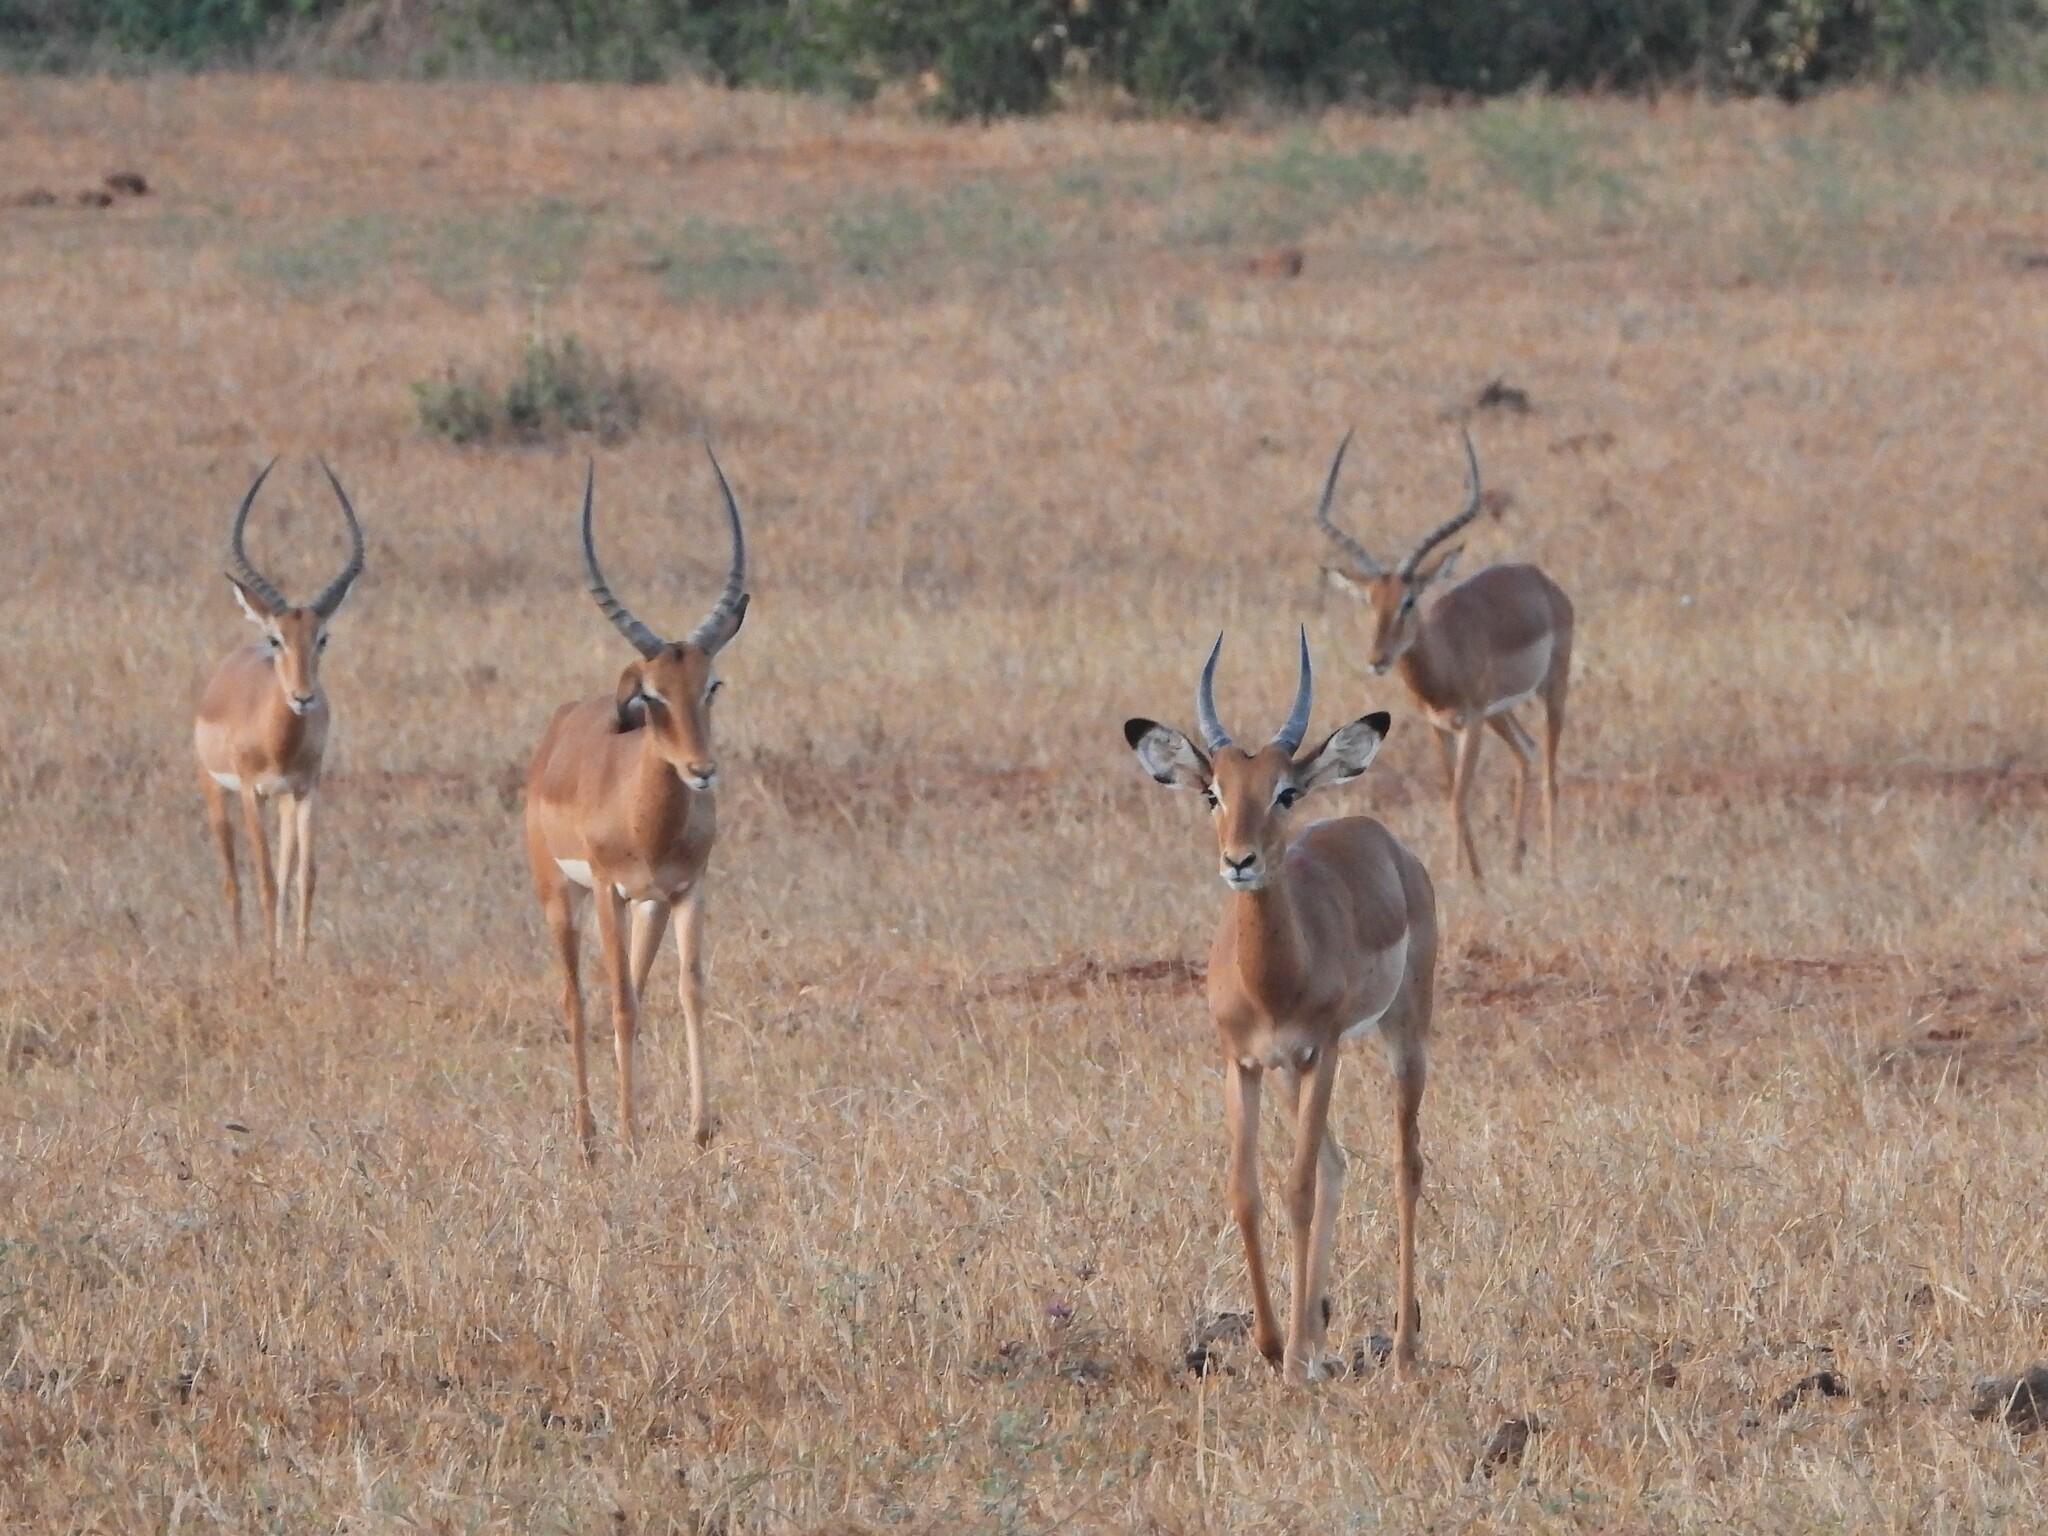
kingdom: Animalia
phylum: Chordata
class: Mammalia
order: Artiodactyla
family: Bovidae
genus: Aepyceros
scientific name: Aepyceros melampus
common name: Impala
